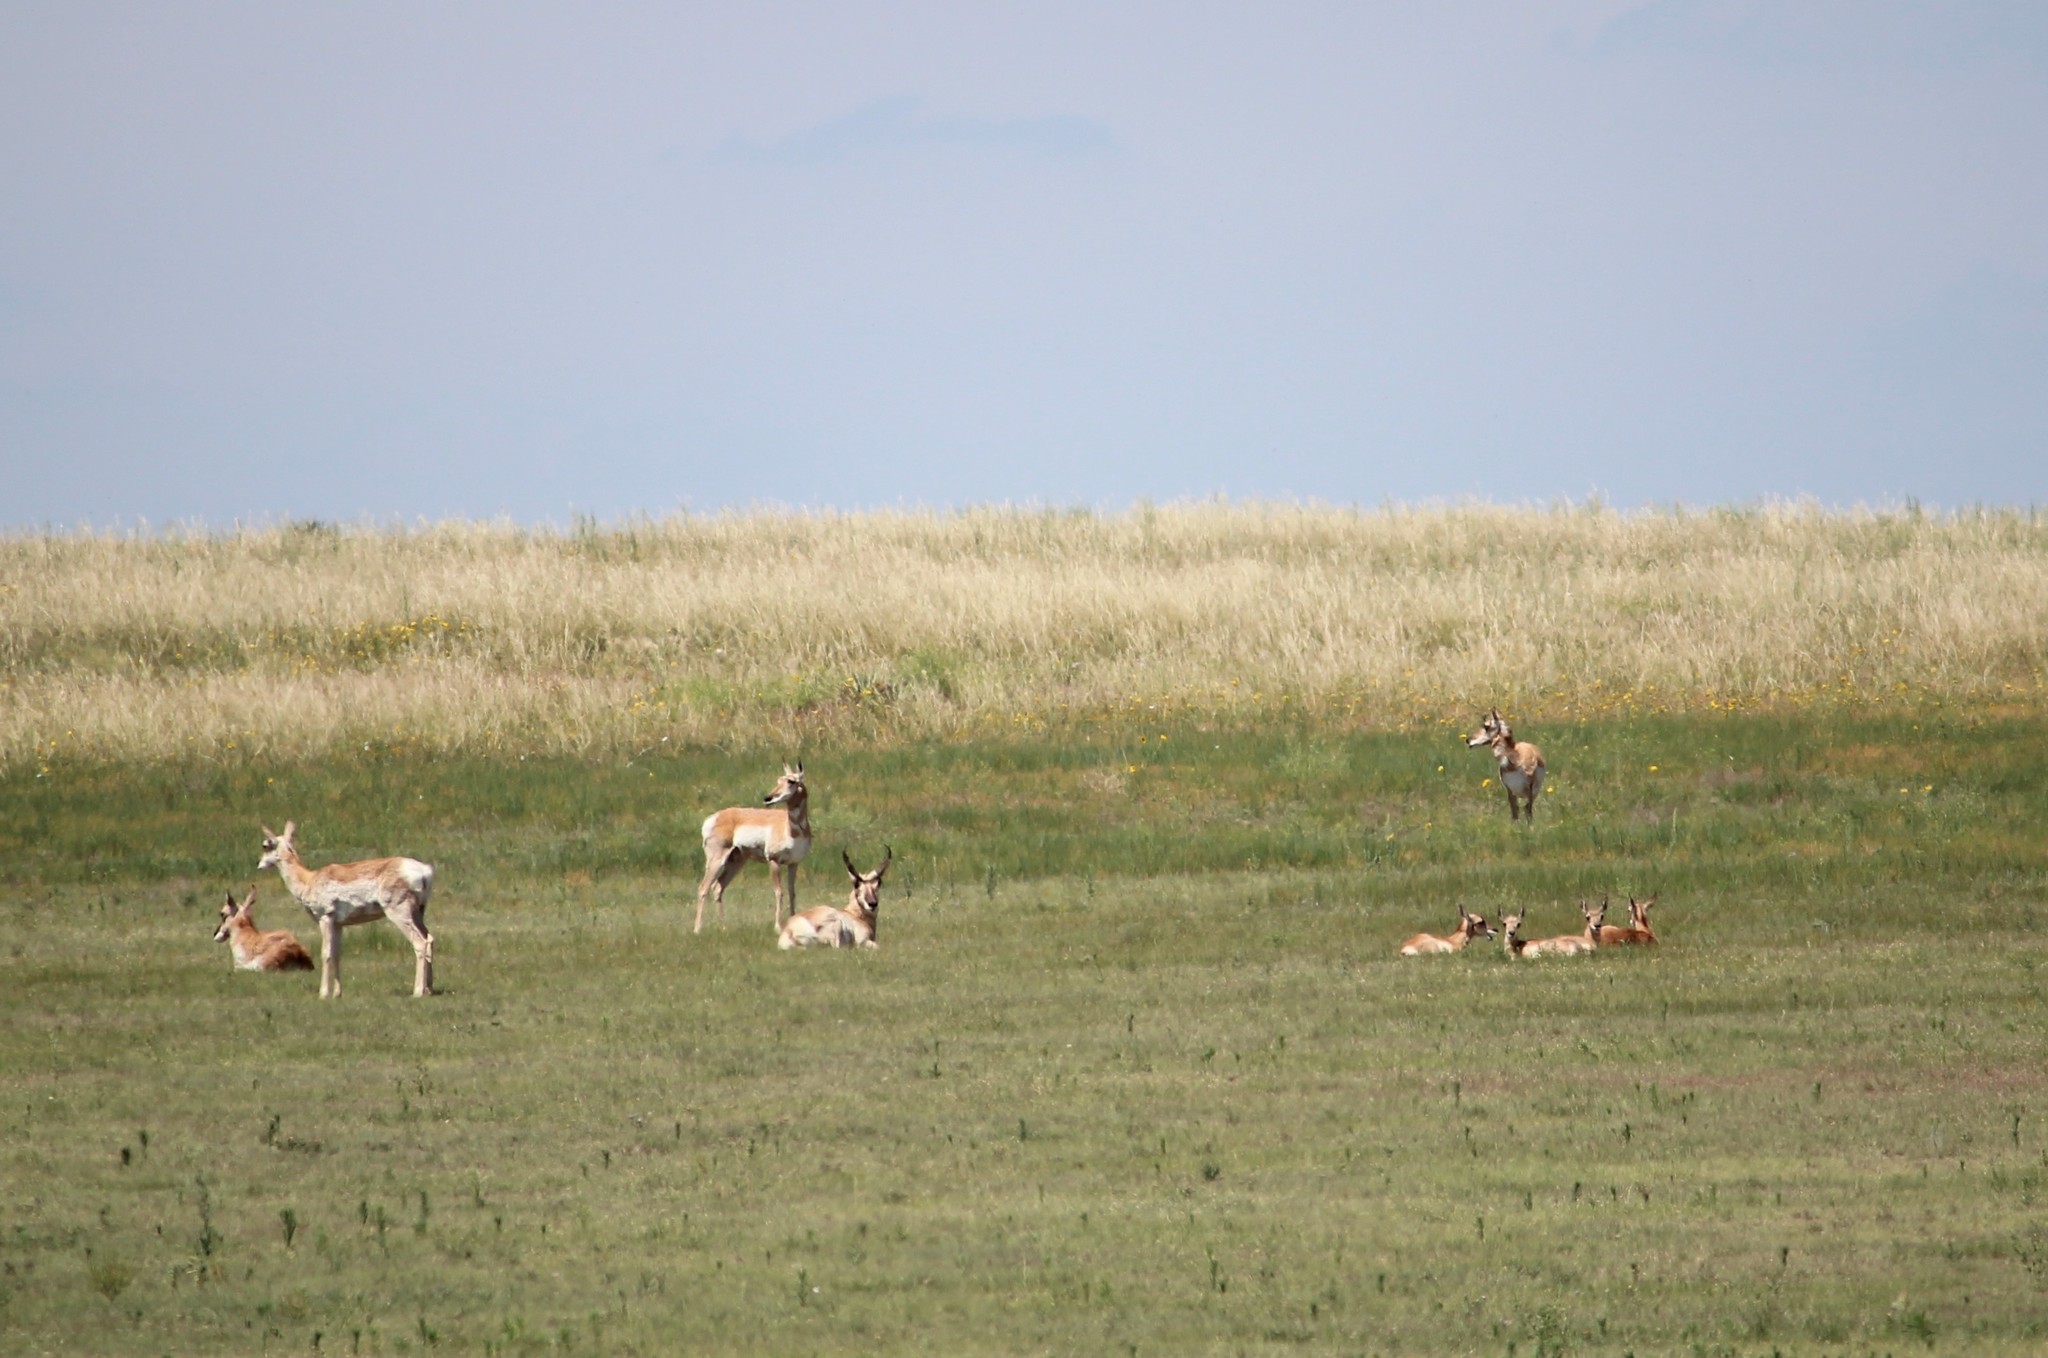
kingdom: Animalia
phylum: Chordata
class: Mammalia
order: Artiodactyla
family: Antilocapridae
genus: Antilocapra
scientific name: Antilocapra americana
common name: Pronghorn
